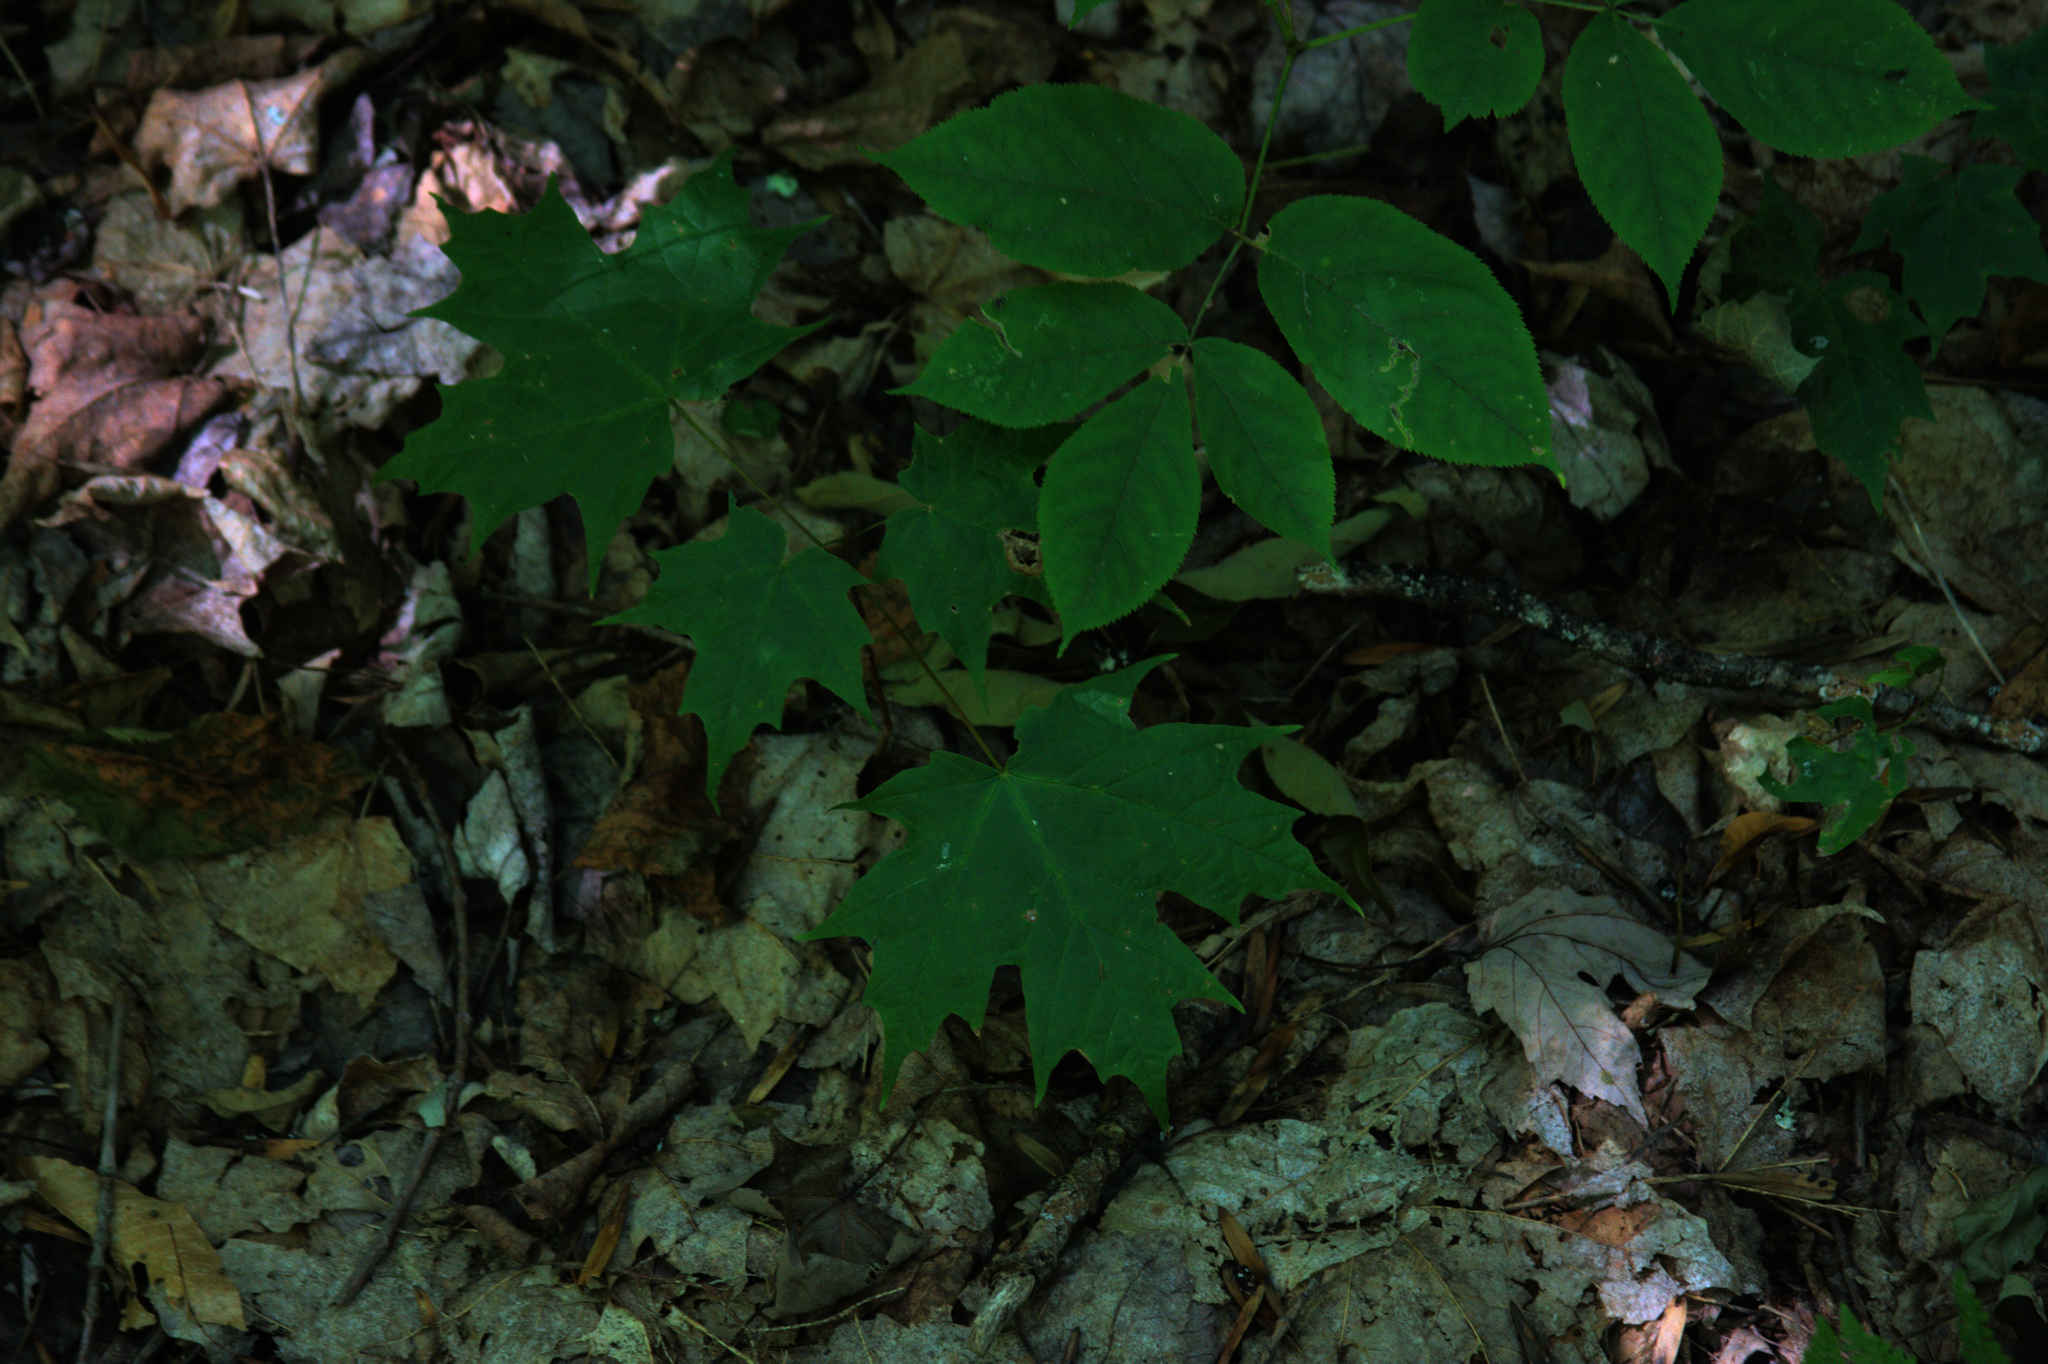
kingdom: Plantae
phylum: Tracheophyta
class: Magnoliopsida
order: Sapindales
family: Sapindaceae
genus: Acer
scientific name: Acer saccharum
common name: Sugar maple
